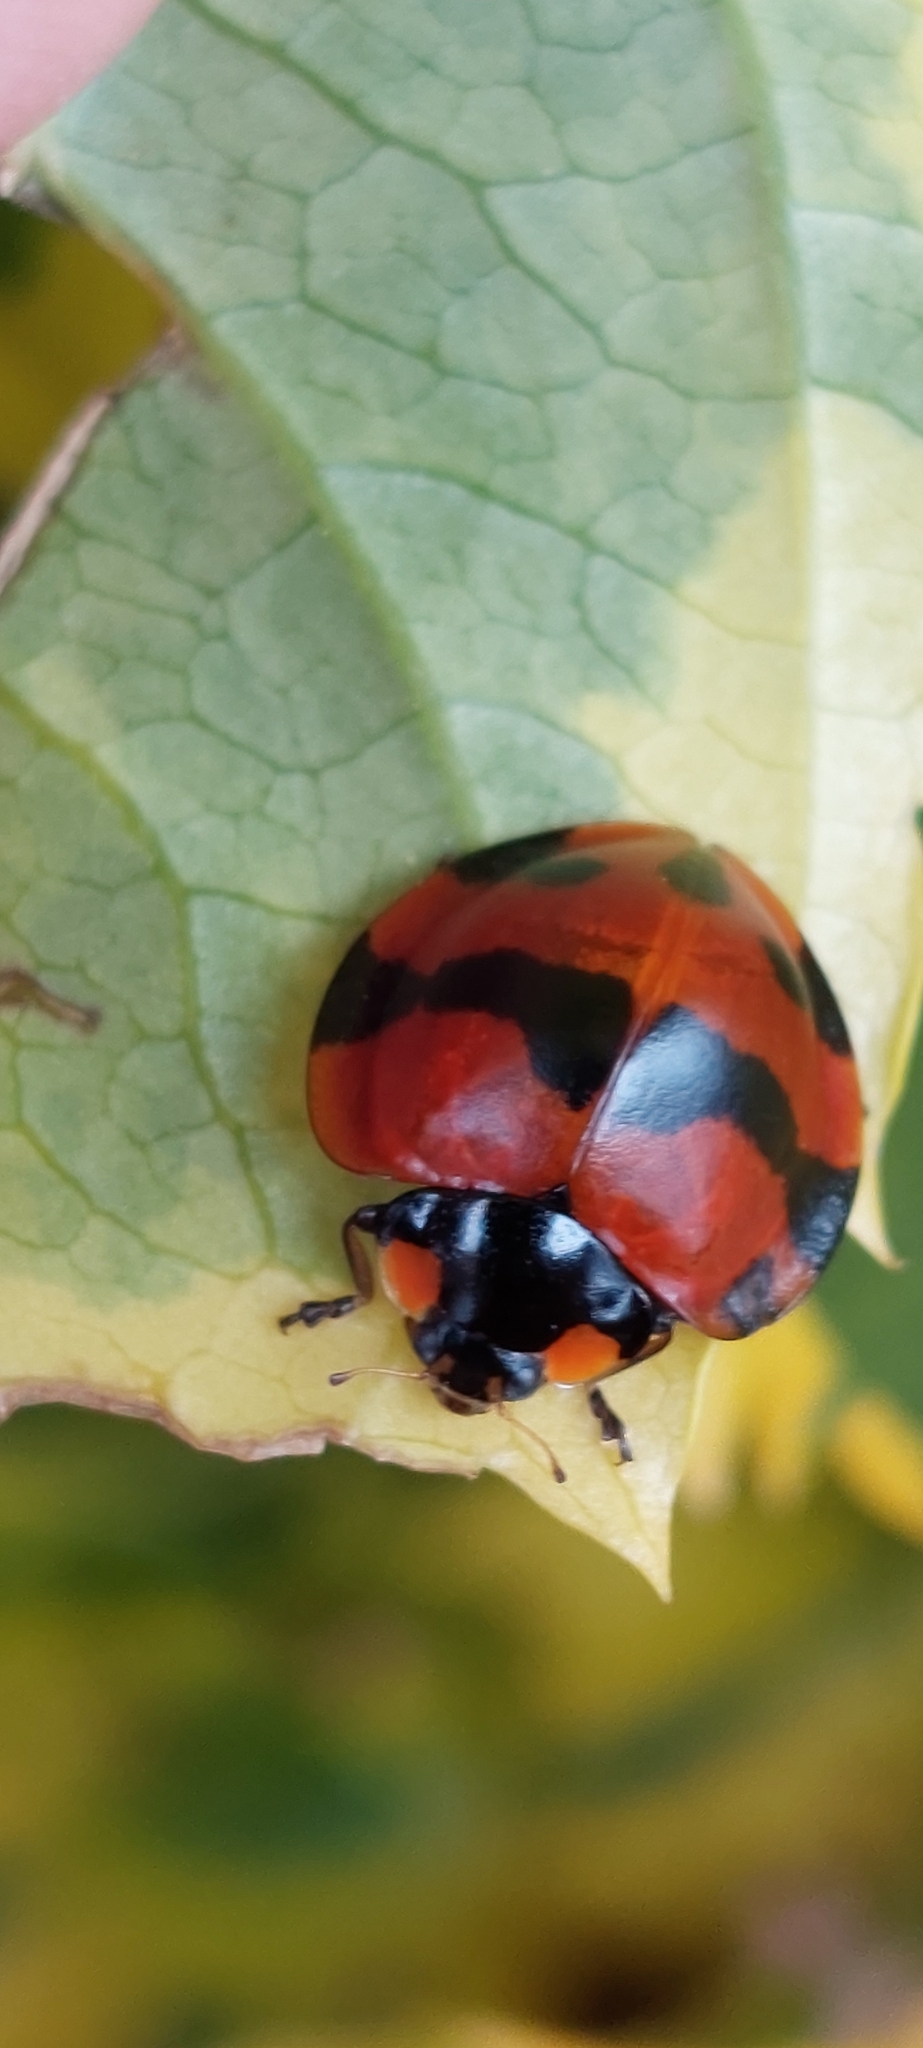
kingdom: Animalia
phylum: Arthropoda
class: Insecta
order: Coleoptera
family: Coccinellidae
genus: Neda
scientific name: Neda norrisi
